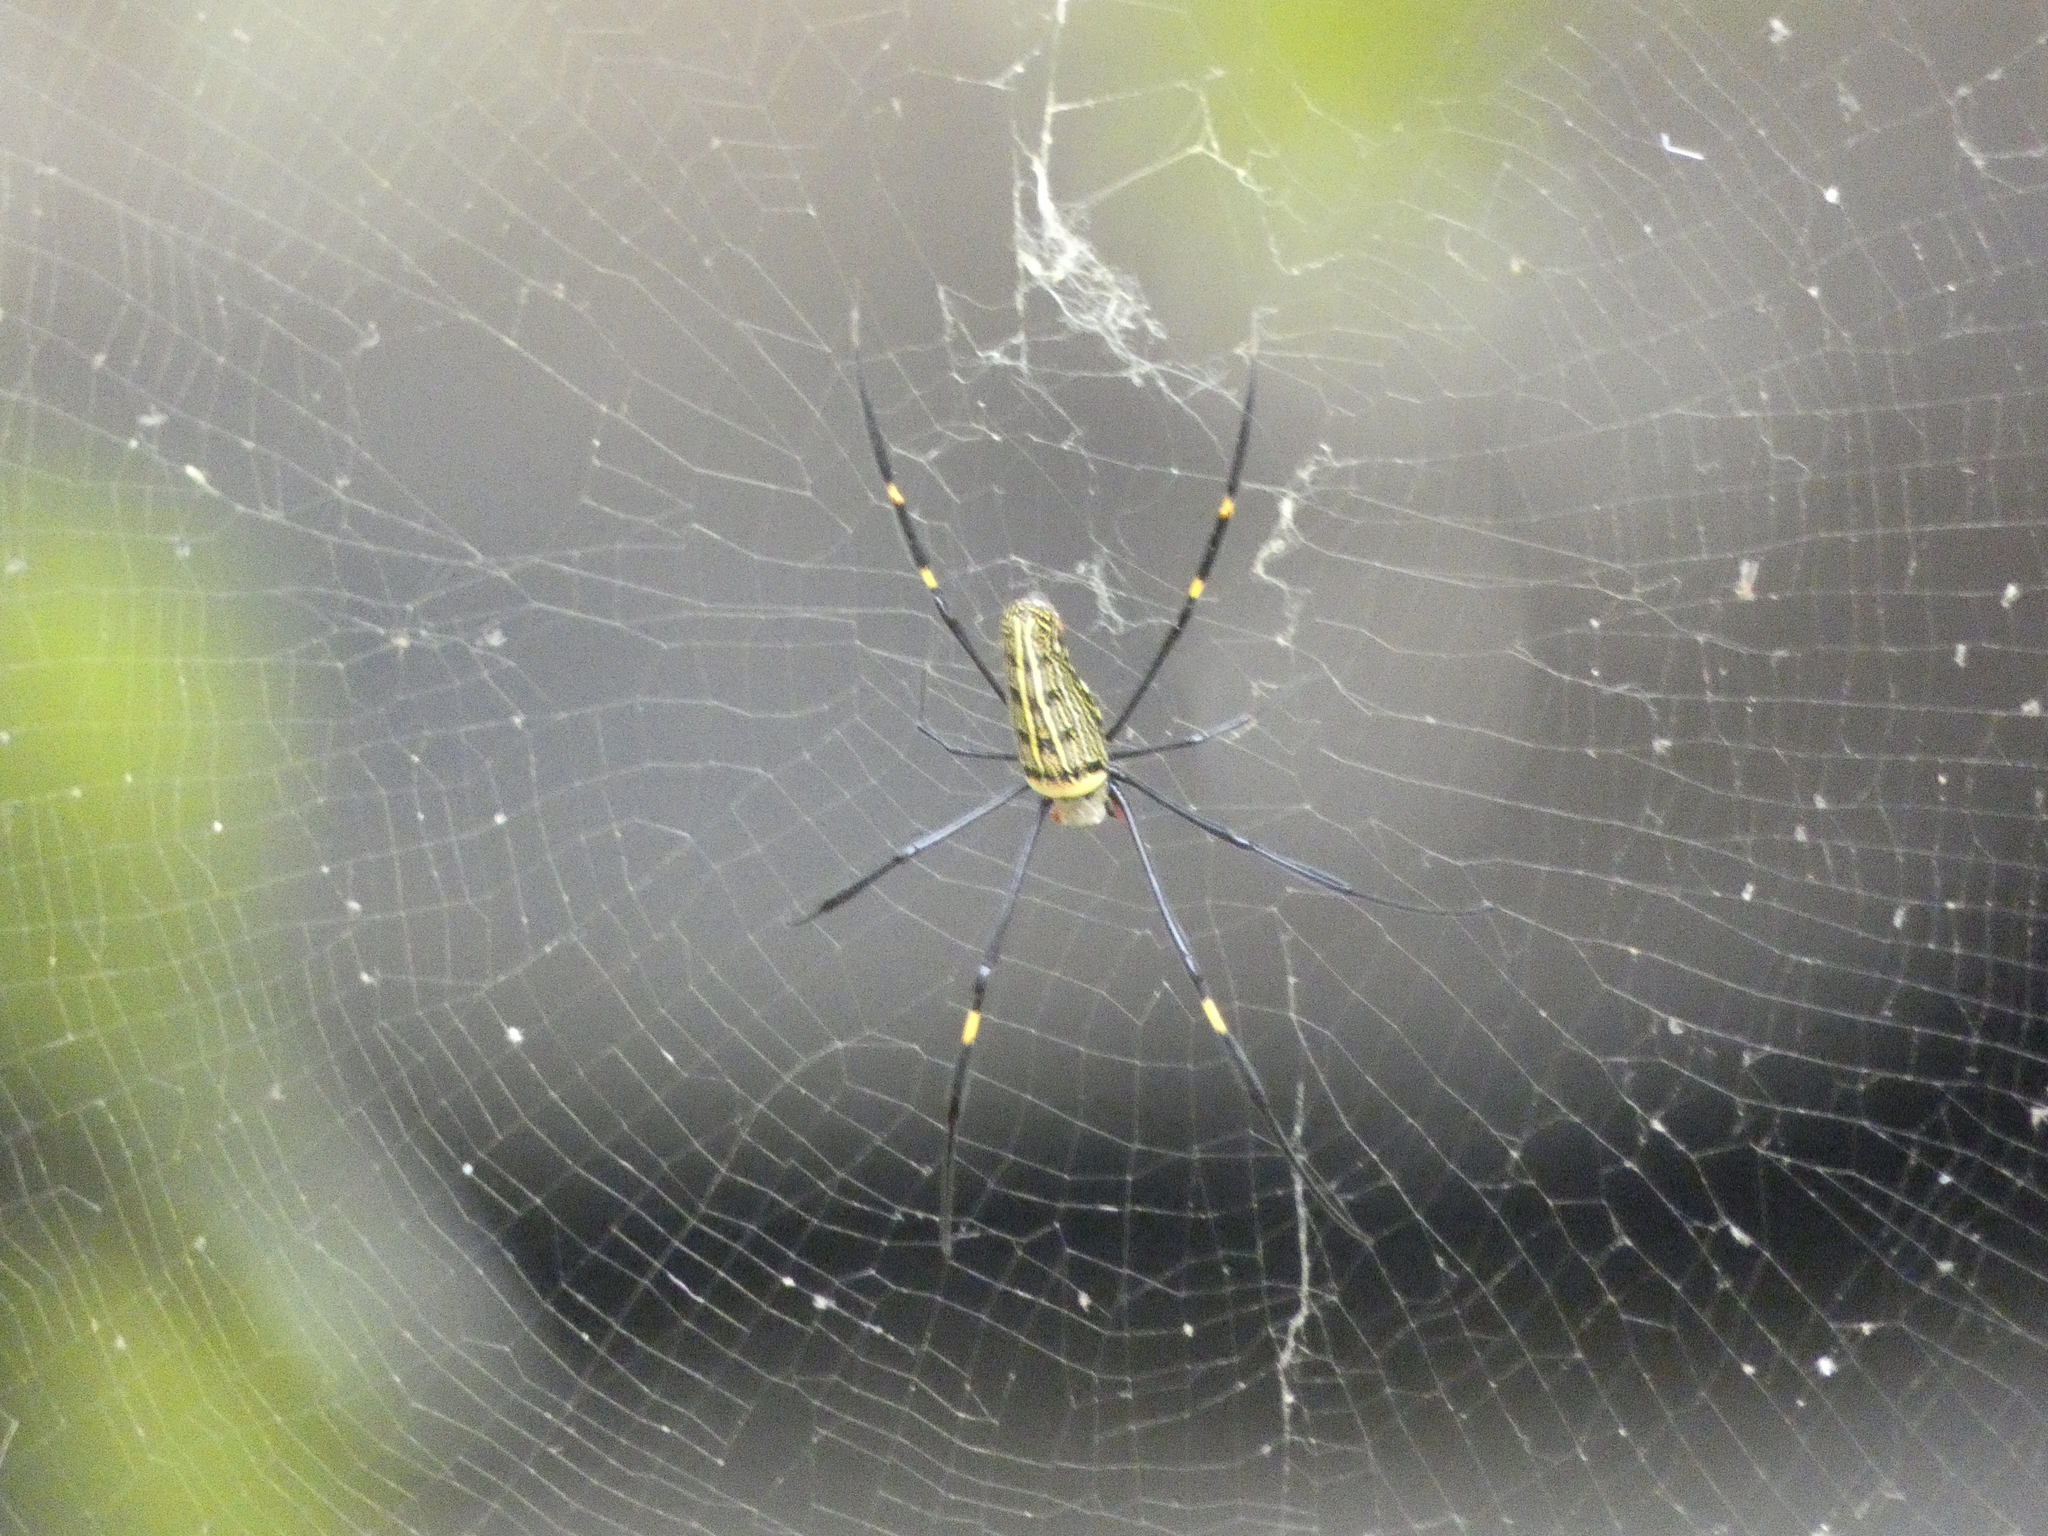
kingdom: Animalia
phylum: Arthropoda
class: Arachnida
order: Araneae
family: Araneidae
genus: Nephila
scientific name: Nephila pilipes
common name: Giant golden orb weaver
